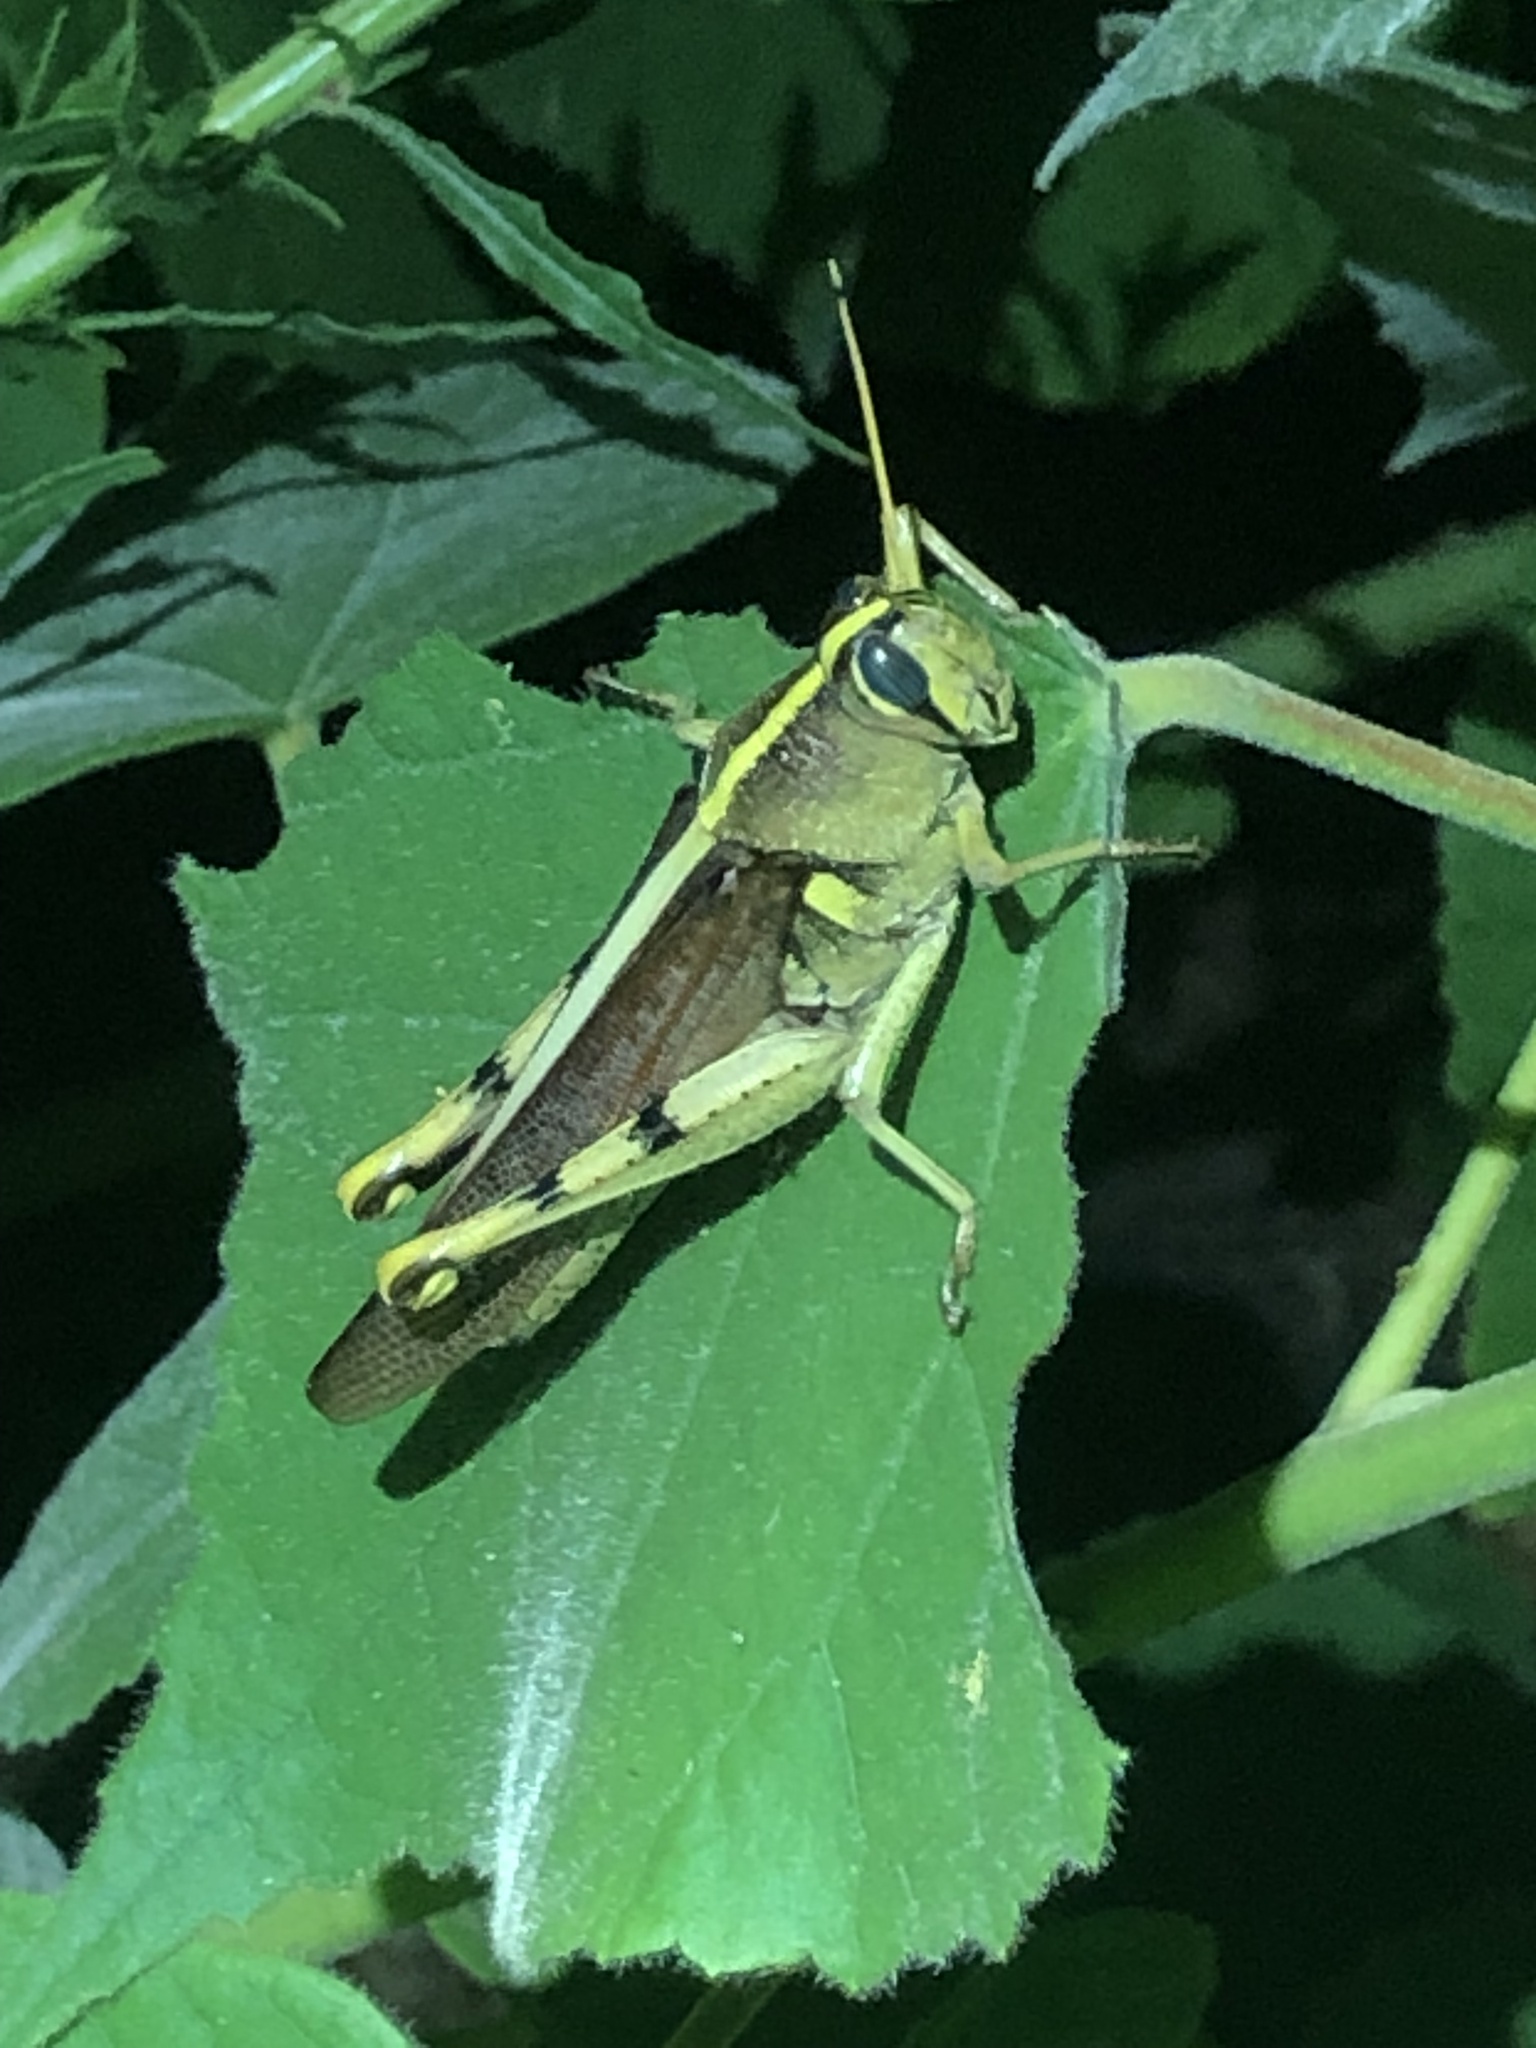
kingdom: Animalia
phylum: Arthropoda
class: Insecta
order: Orthoptera
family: Acrididae
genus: Schistocerca
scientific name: Schistocerca obscura
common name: Obscure bird grasshopper
